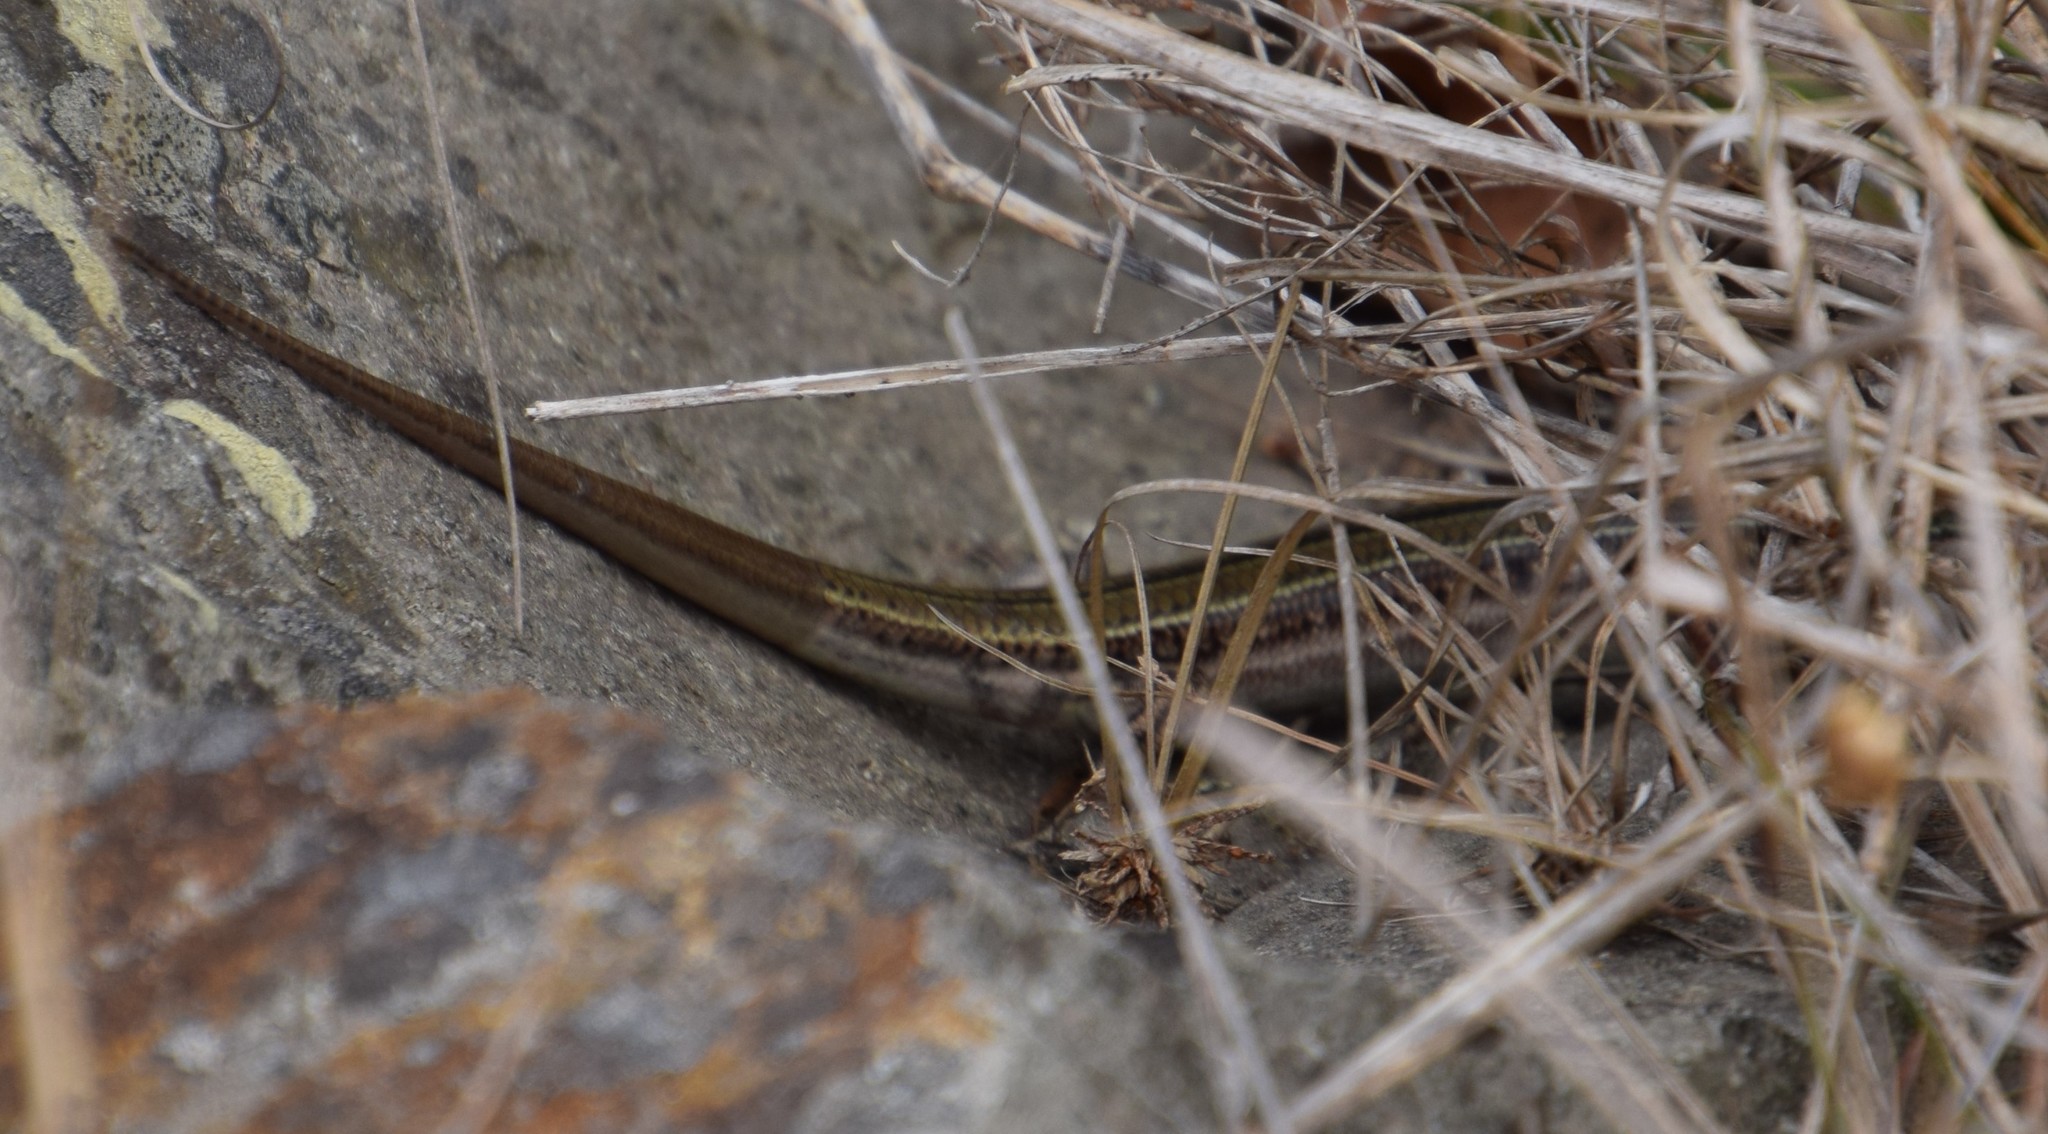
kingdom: Animalia
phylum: Chordata
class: Squamata
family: Scincidae
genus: Ctenotus
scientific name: Ctenotus robustus
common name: Robust ctenotus
